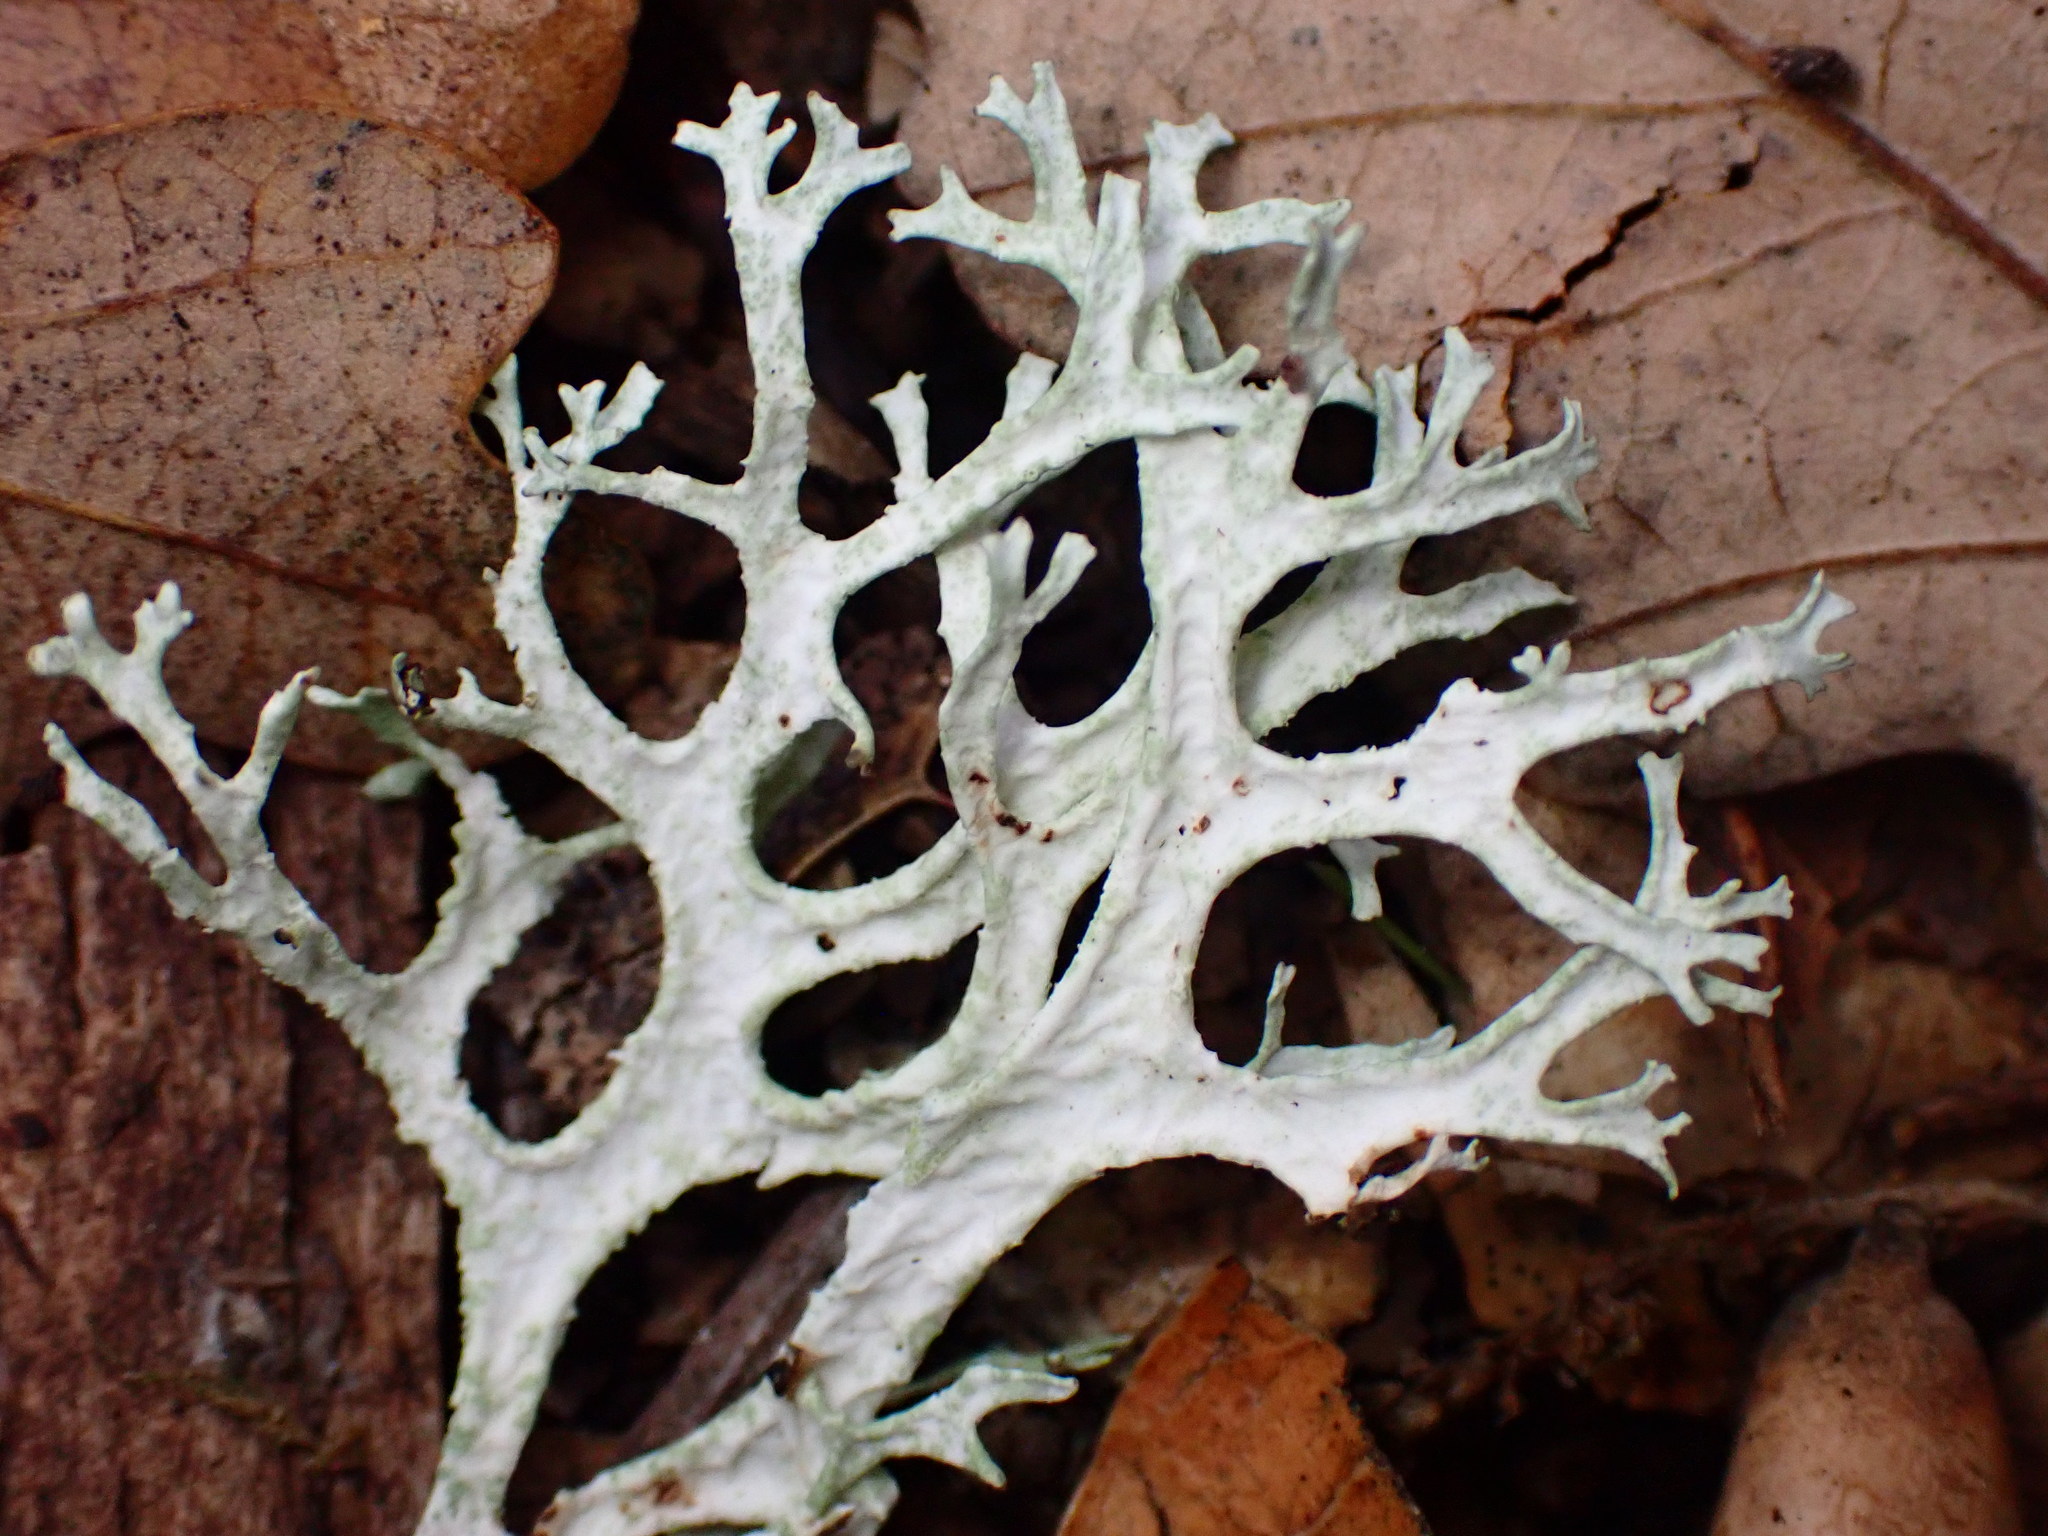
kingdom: Fungi
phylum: Ascomycota
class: Lecanoromycetes
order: Lecanorales
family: Parmeliaceae
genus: Evernia
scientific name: Evernia prunastri
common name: Oak moss
